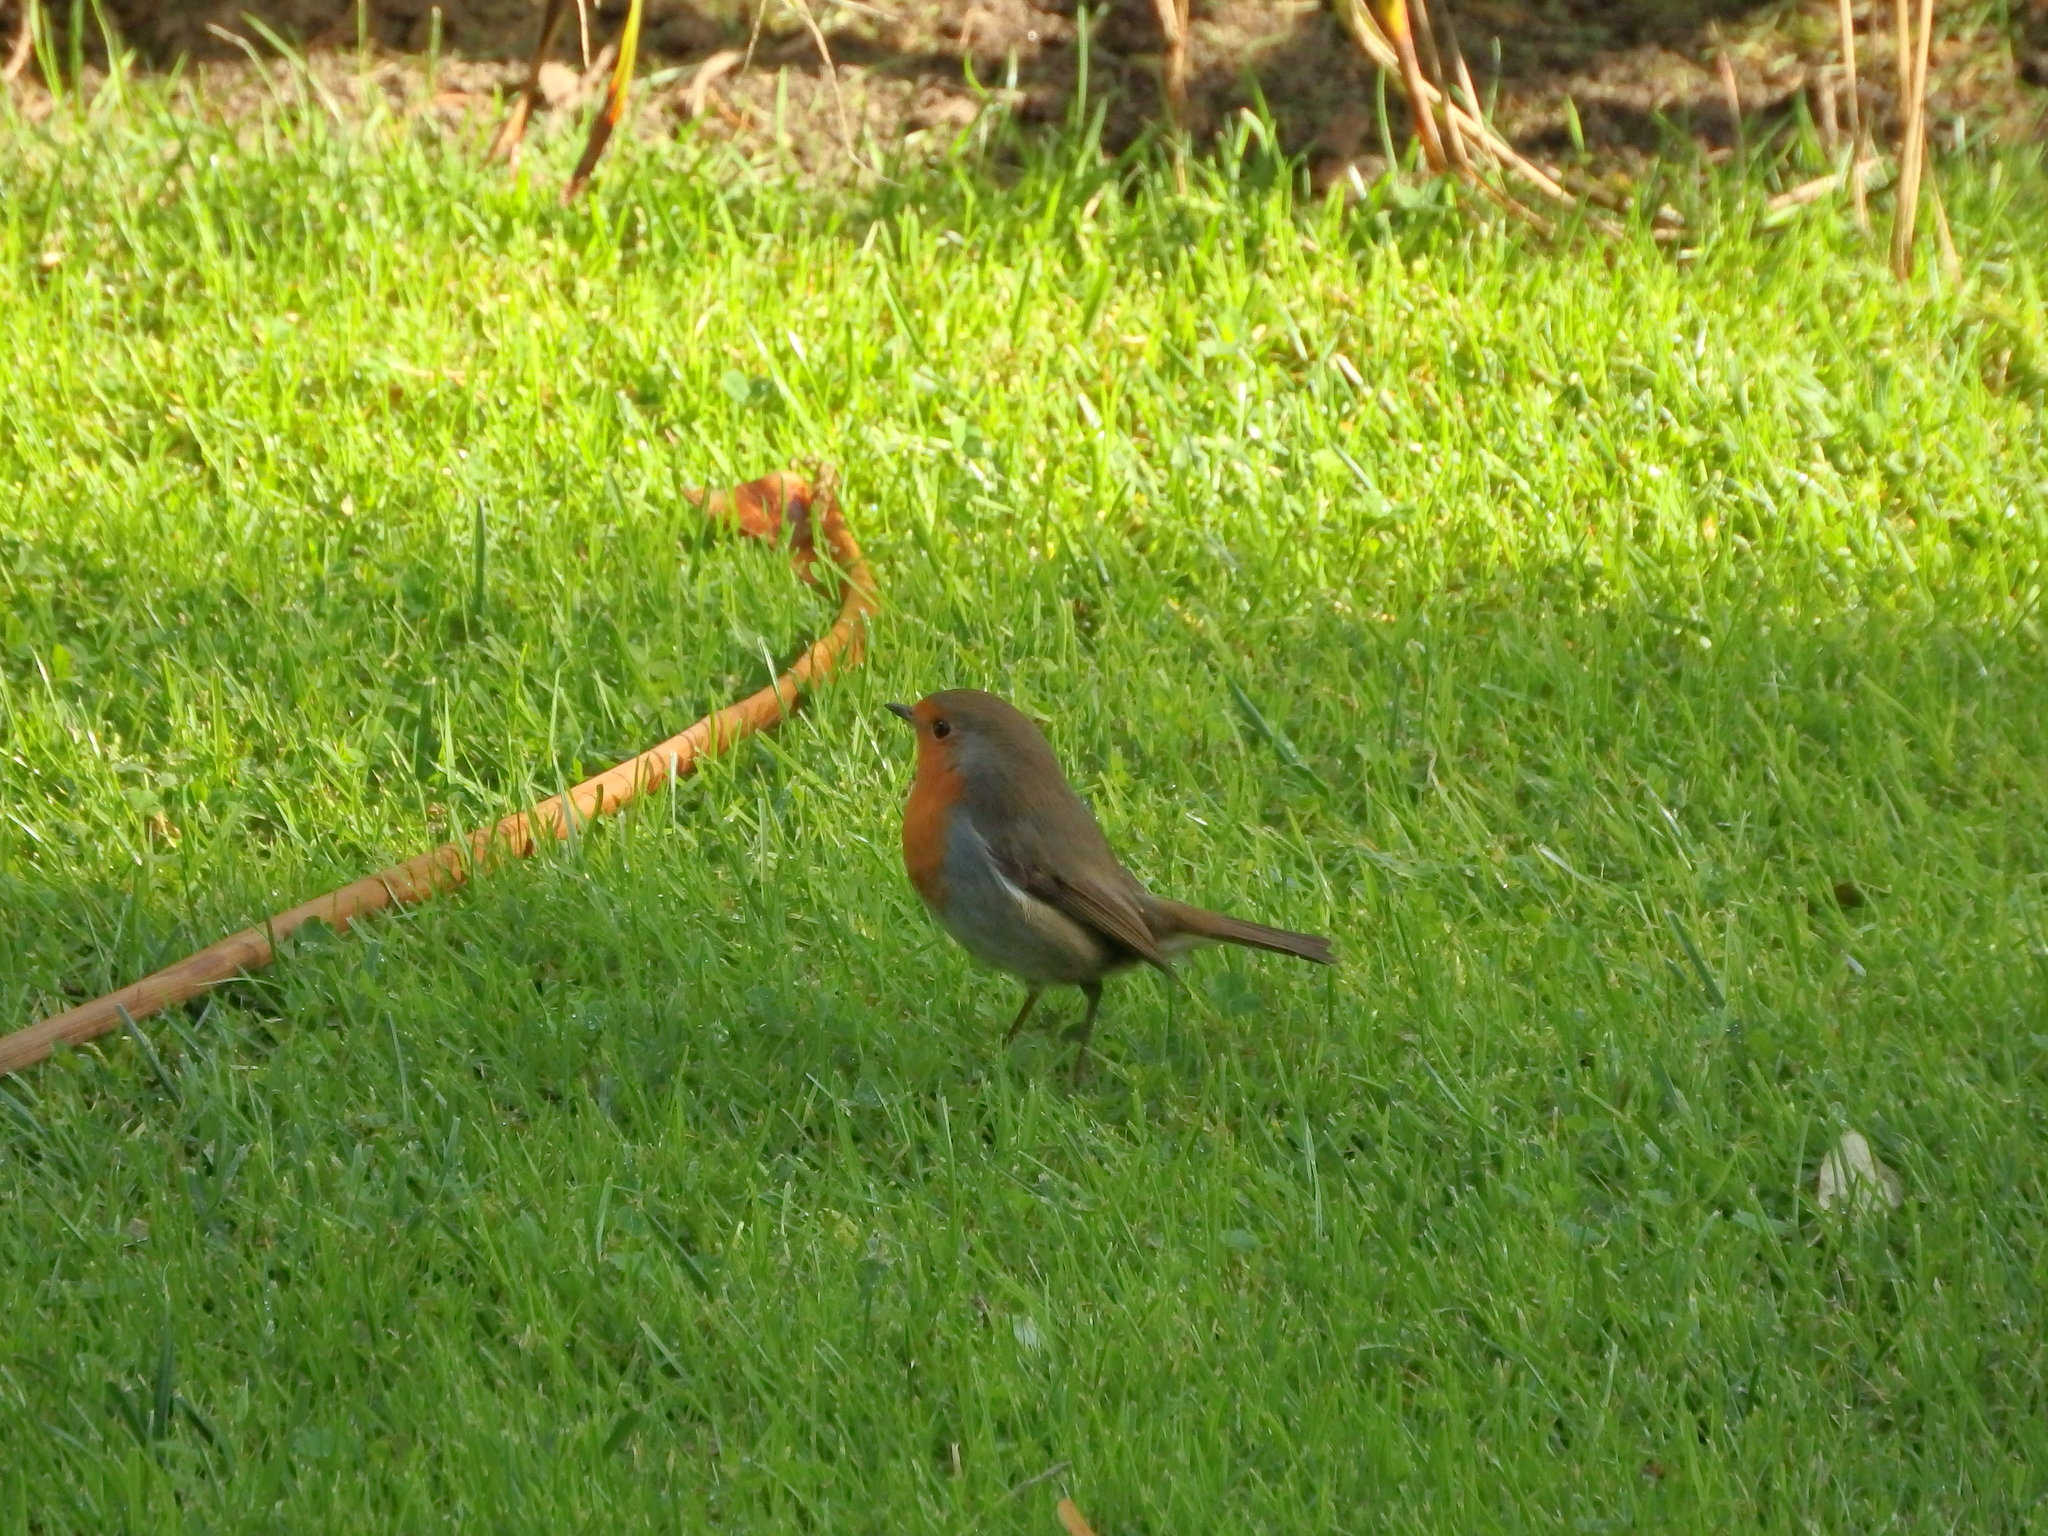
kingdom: Animalia
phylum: Chordata
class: Aves
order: Passeriformes
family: Muscicapidae
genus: Erithacus
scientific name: Erithacus rubecula
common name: European robin
